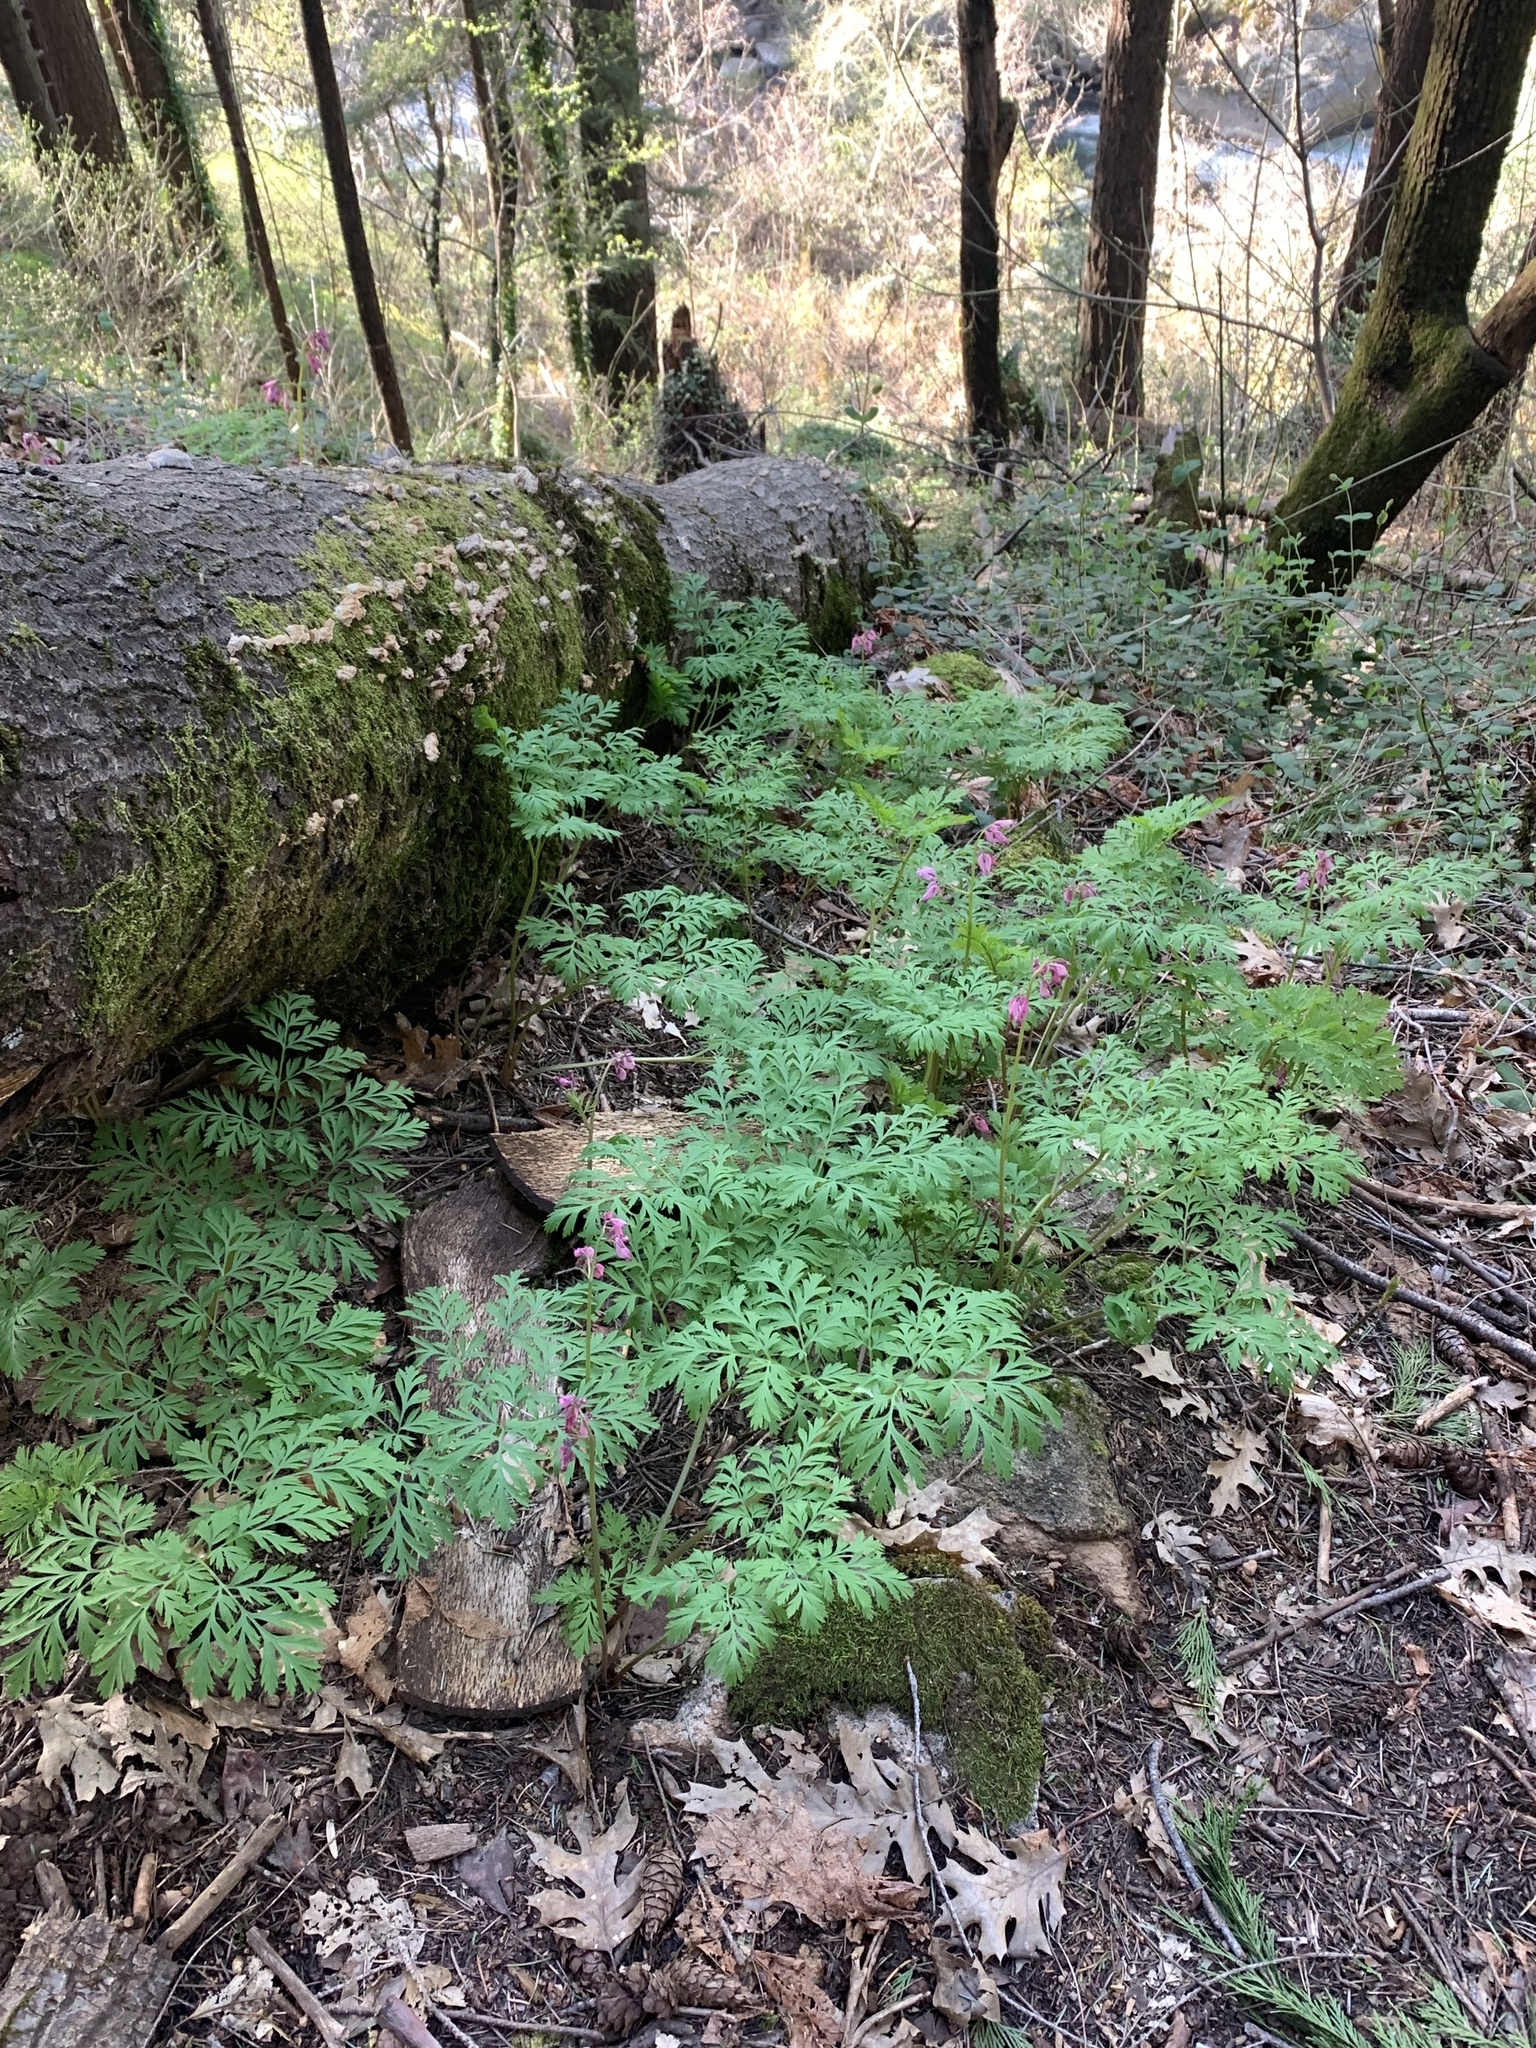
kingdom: Plantae
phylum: Tracheophyta
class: Magnoliopsida
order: Ranunculales
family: Papaveraceae
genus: Dicentra
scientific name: Dicentra formosa
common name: Bleeding-heart
